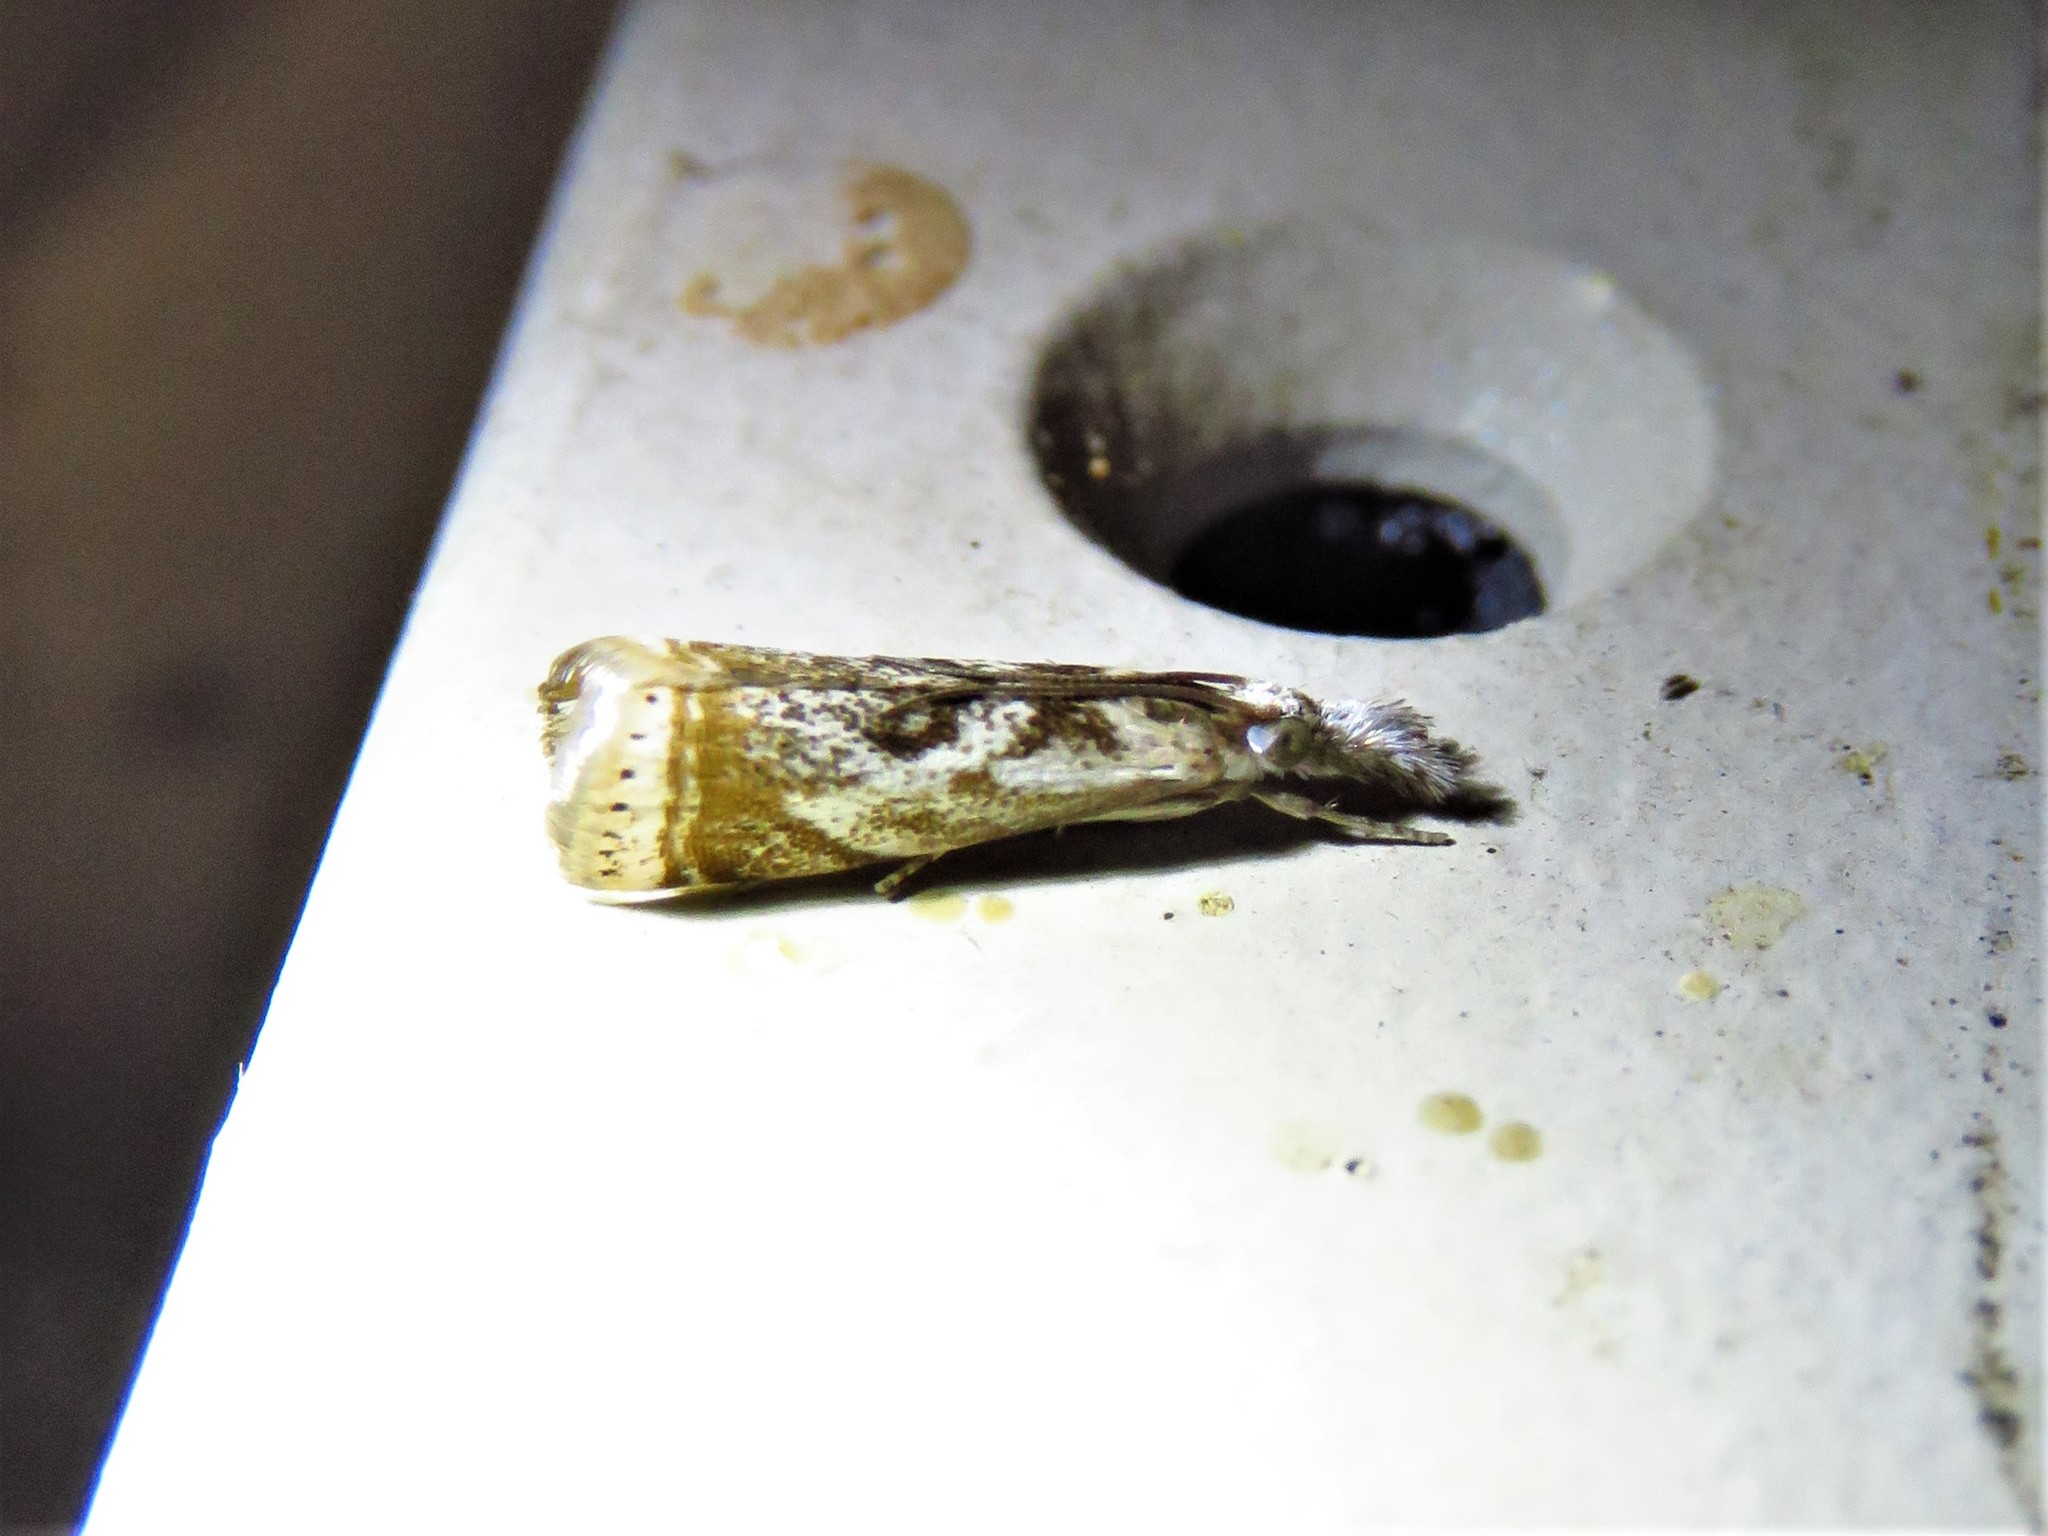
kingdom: Animalia
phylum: Arthropoda
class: Insecta
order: Lepidoptera
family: Crambidae
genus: Microcrambus
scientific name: Microcrambus elegans
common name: Elegant grass-veneer
